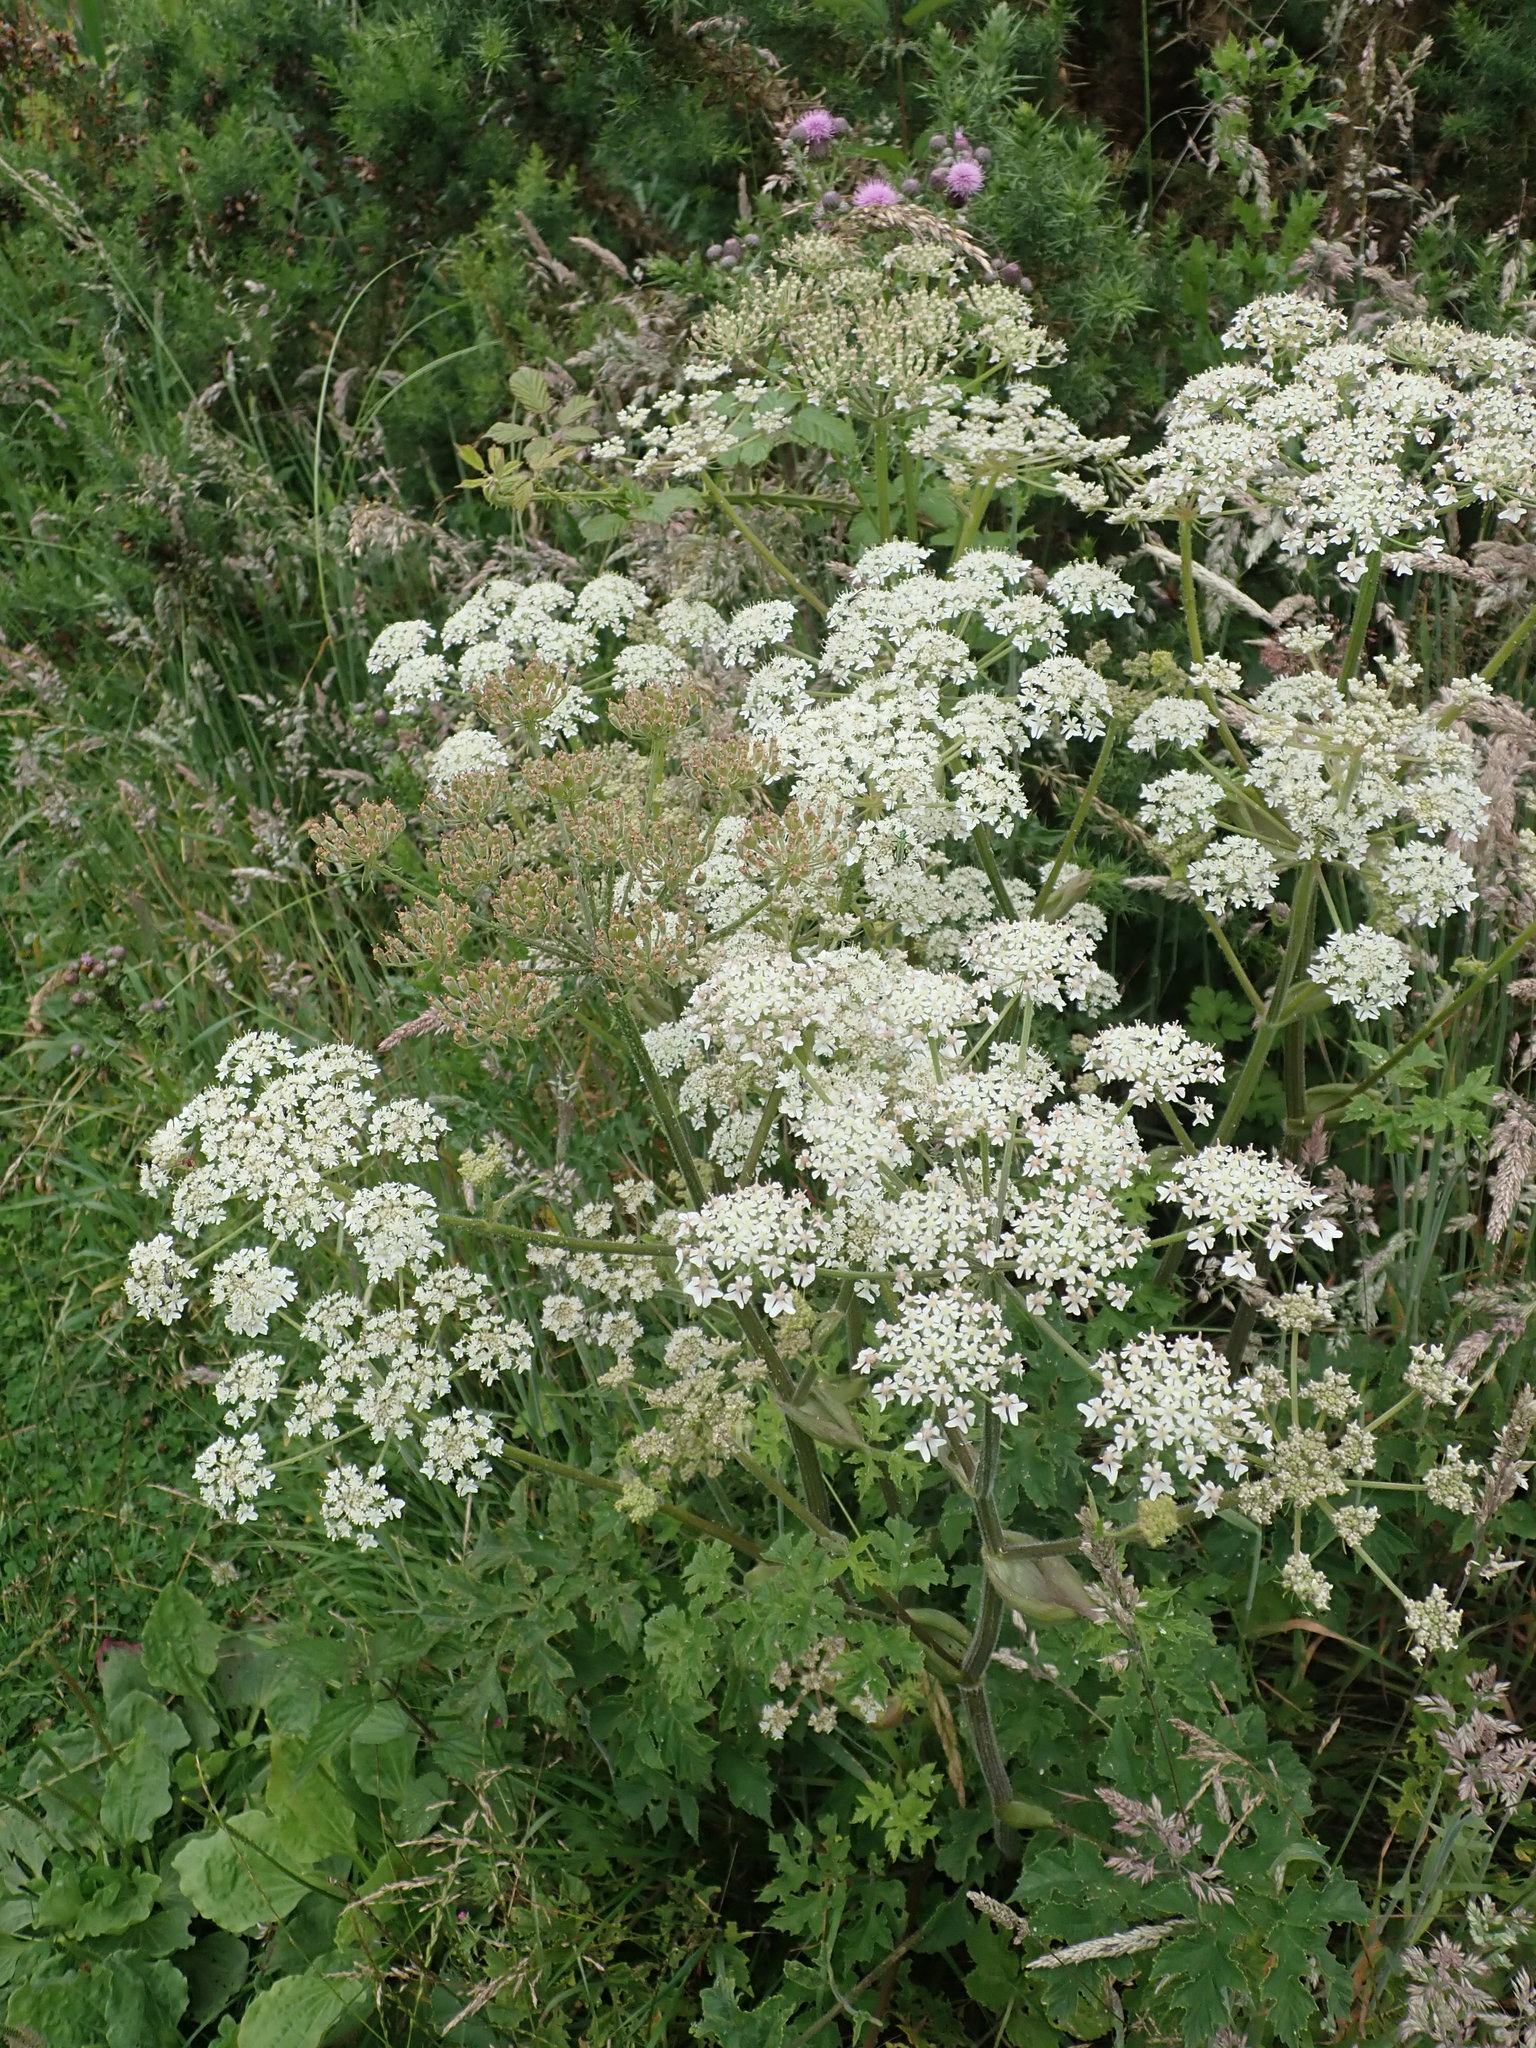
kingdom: Plantae
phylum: Tracheophyta
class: Magnoliopsida
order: Apiales
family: Apiaceae
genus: Heracleum
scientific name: Heracleum sphondylium
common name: Hogweed
